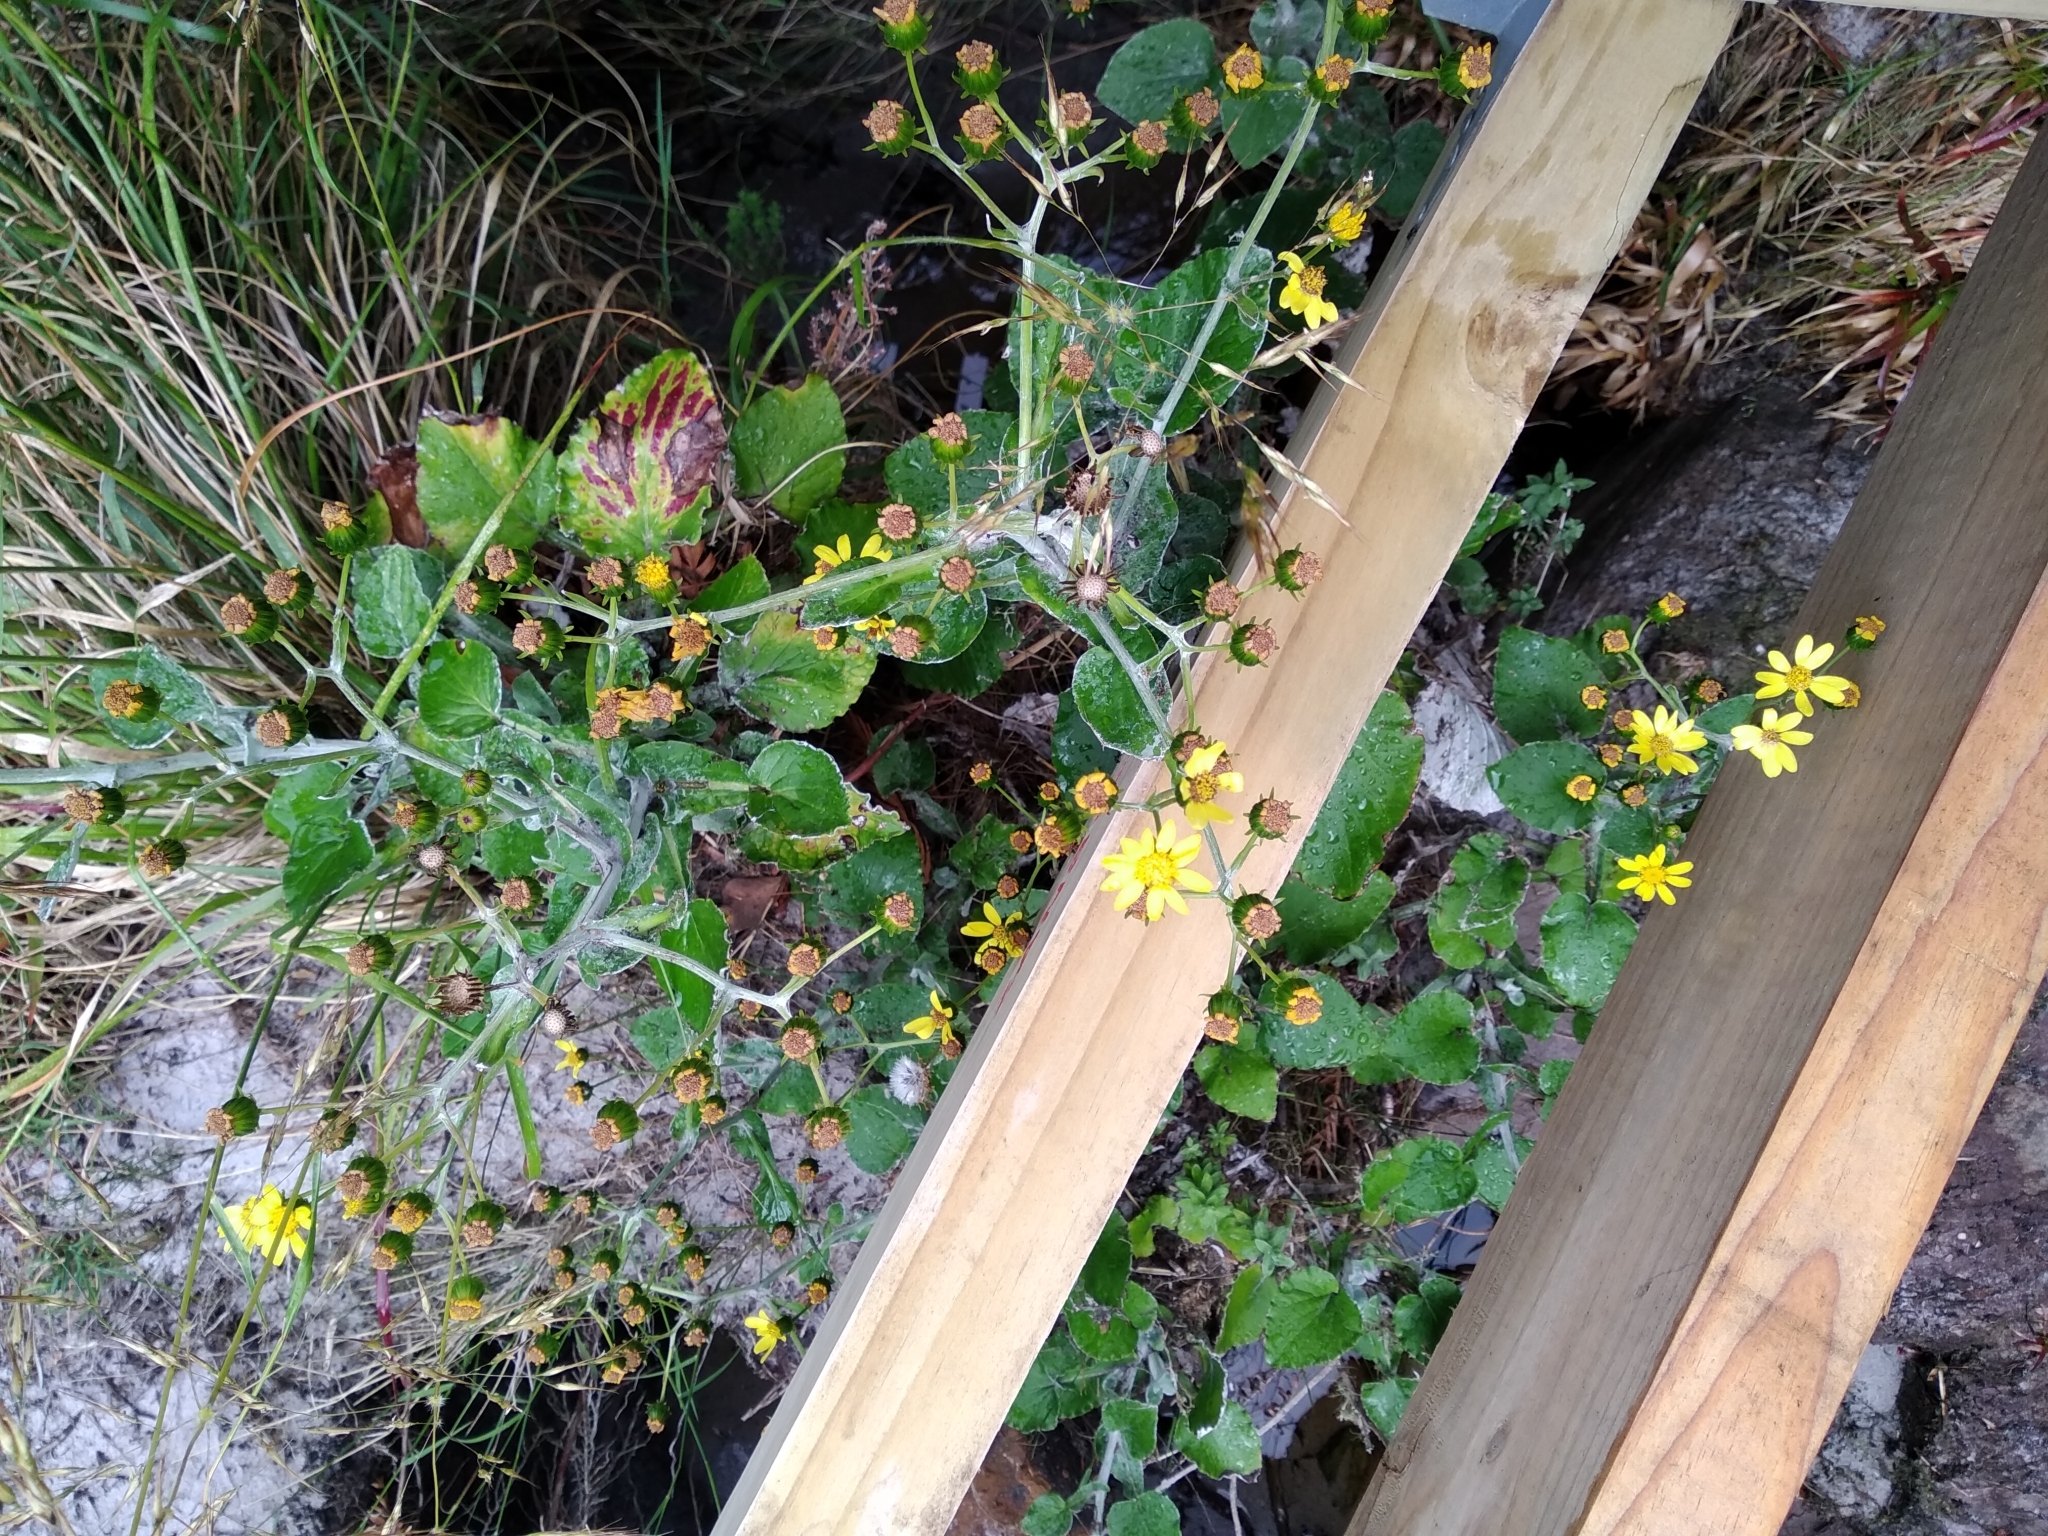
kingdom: Plantae
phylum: Tracheophyta
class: Magnoliopsida
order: Asterales
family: Asteraceae
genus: Senecio
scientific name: Senecio verbascifolius
